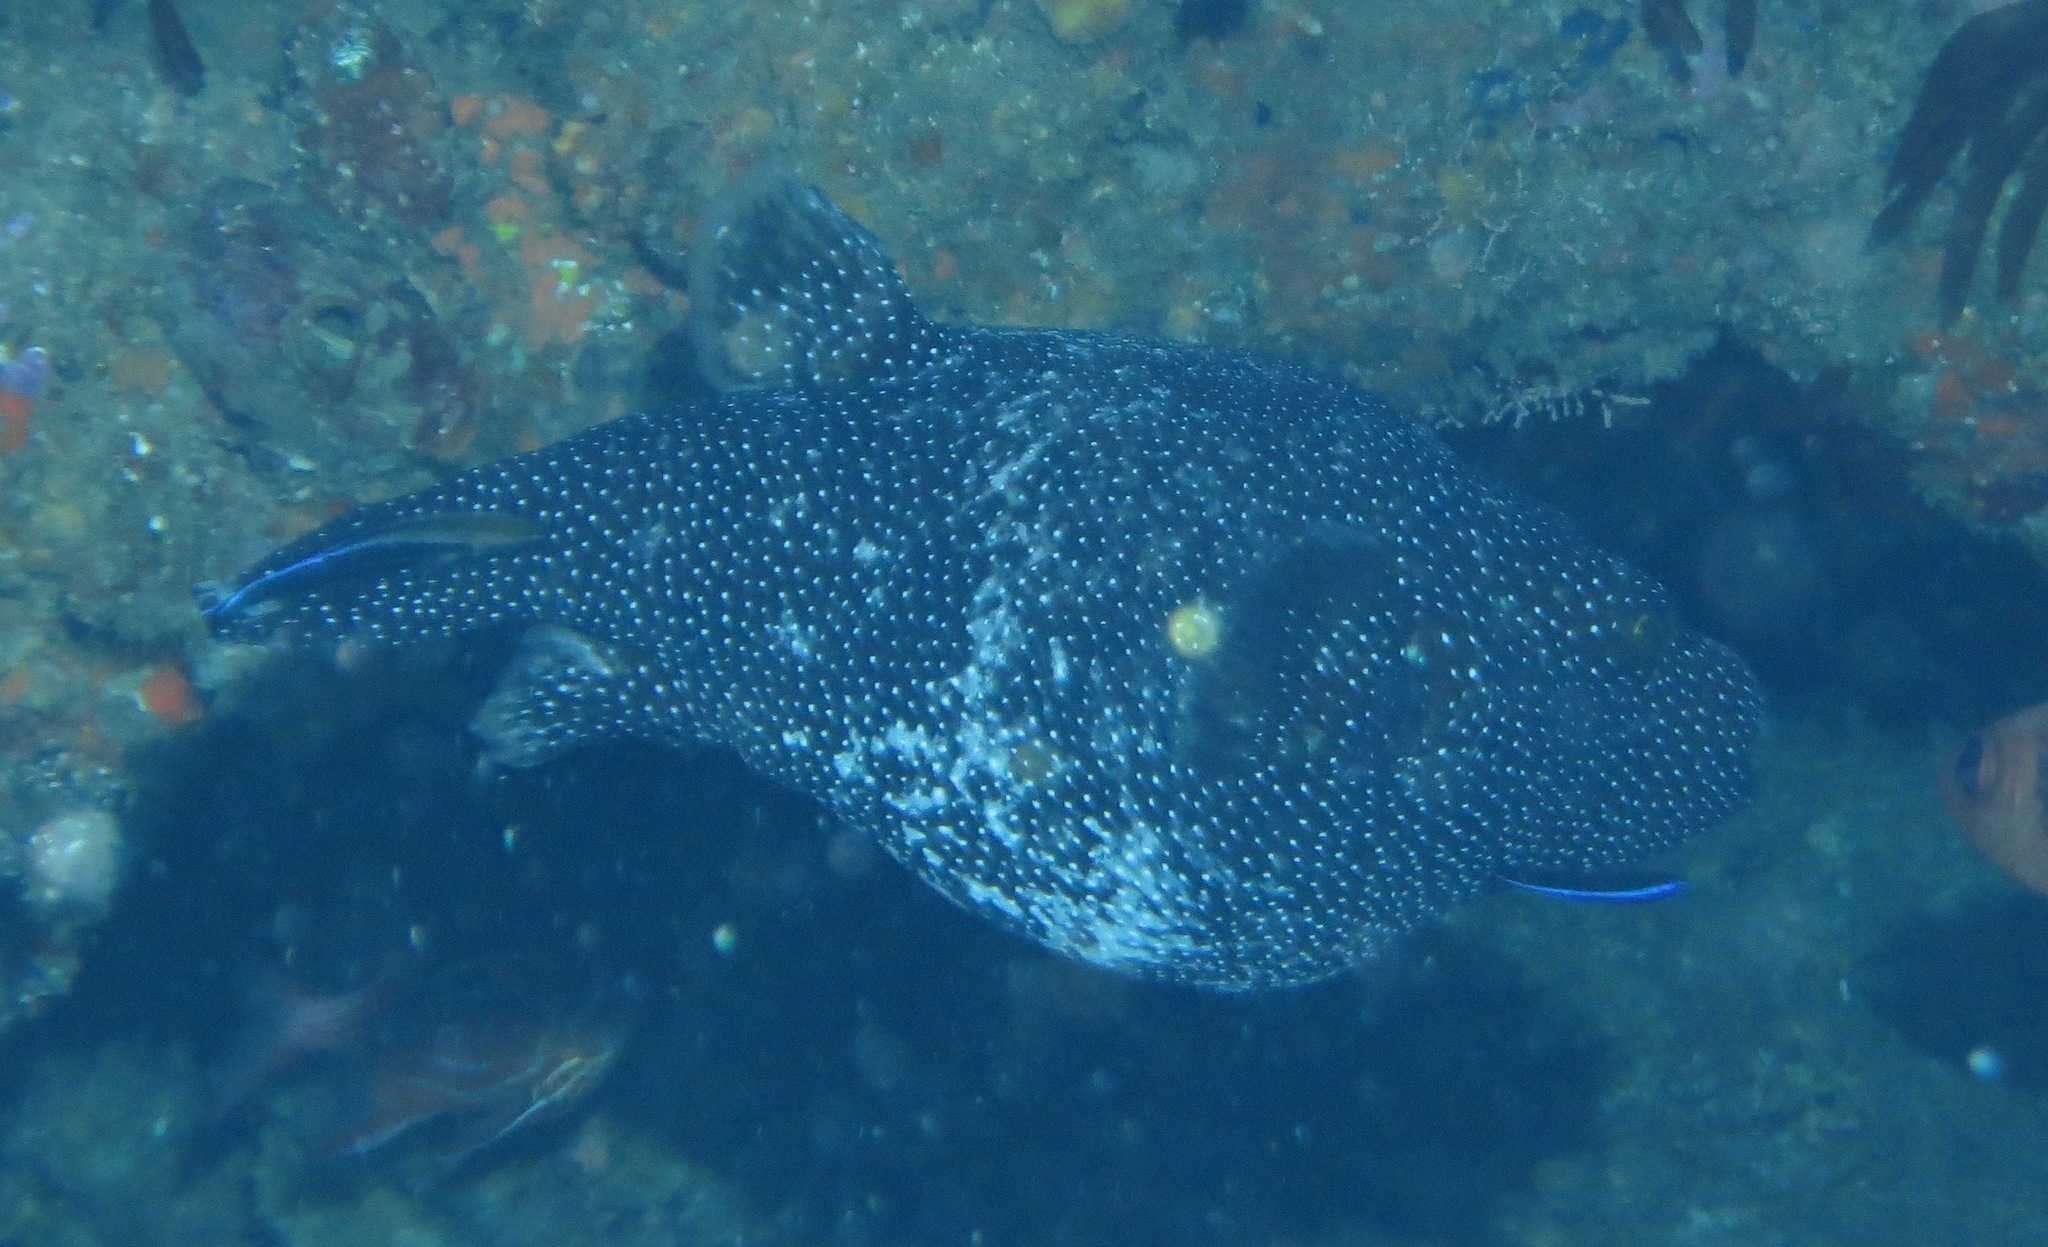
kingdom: Animalia
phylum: Chordata
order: Tetraodontiformes
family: Tetraodontidae
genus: Arothron
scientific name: Arothron meleagris
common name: Guinea-fowl pufferfish
